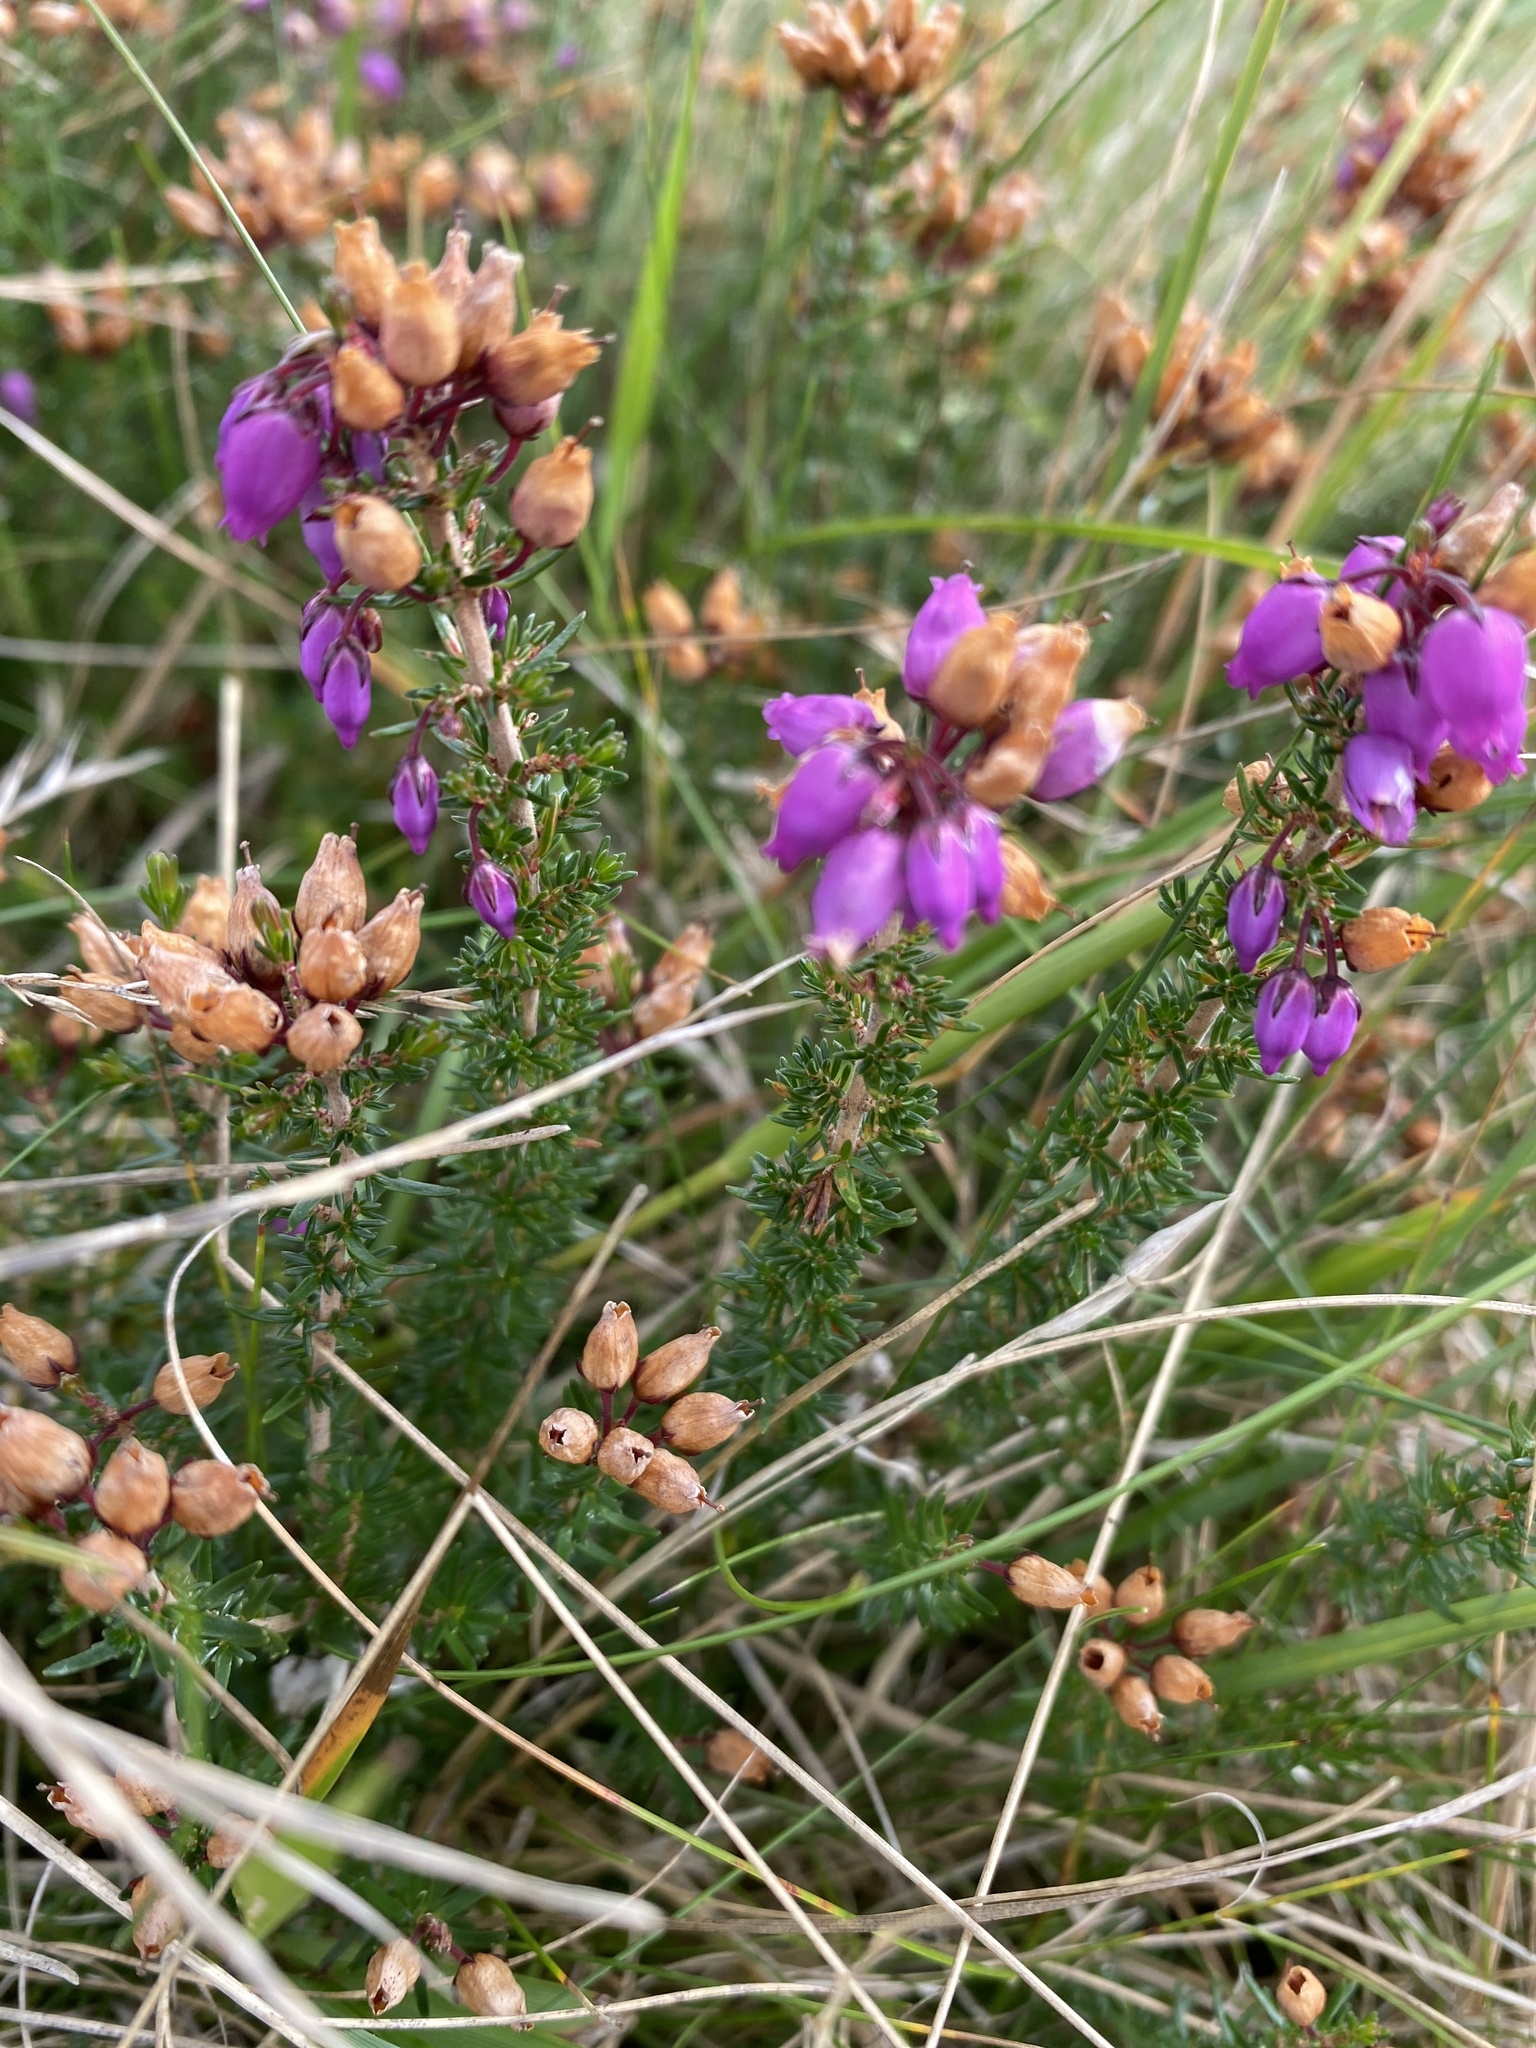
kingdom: Plantae
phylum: Tracheophyta
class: Magnoliopsida
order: Ericales
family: Ericaceae
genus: Erica
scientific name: Erica cinerea
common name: Bell heather
